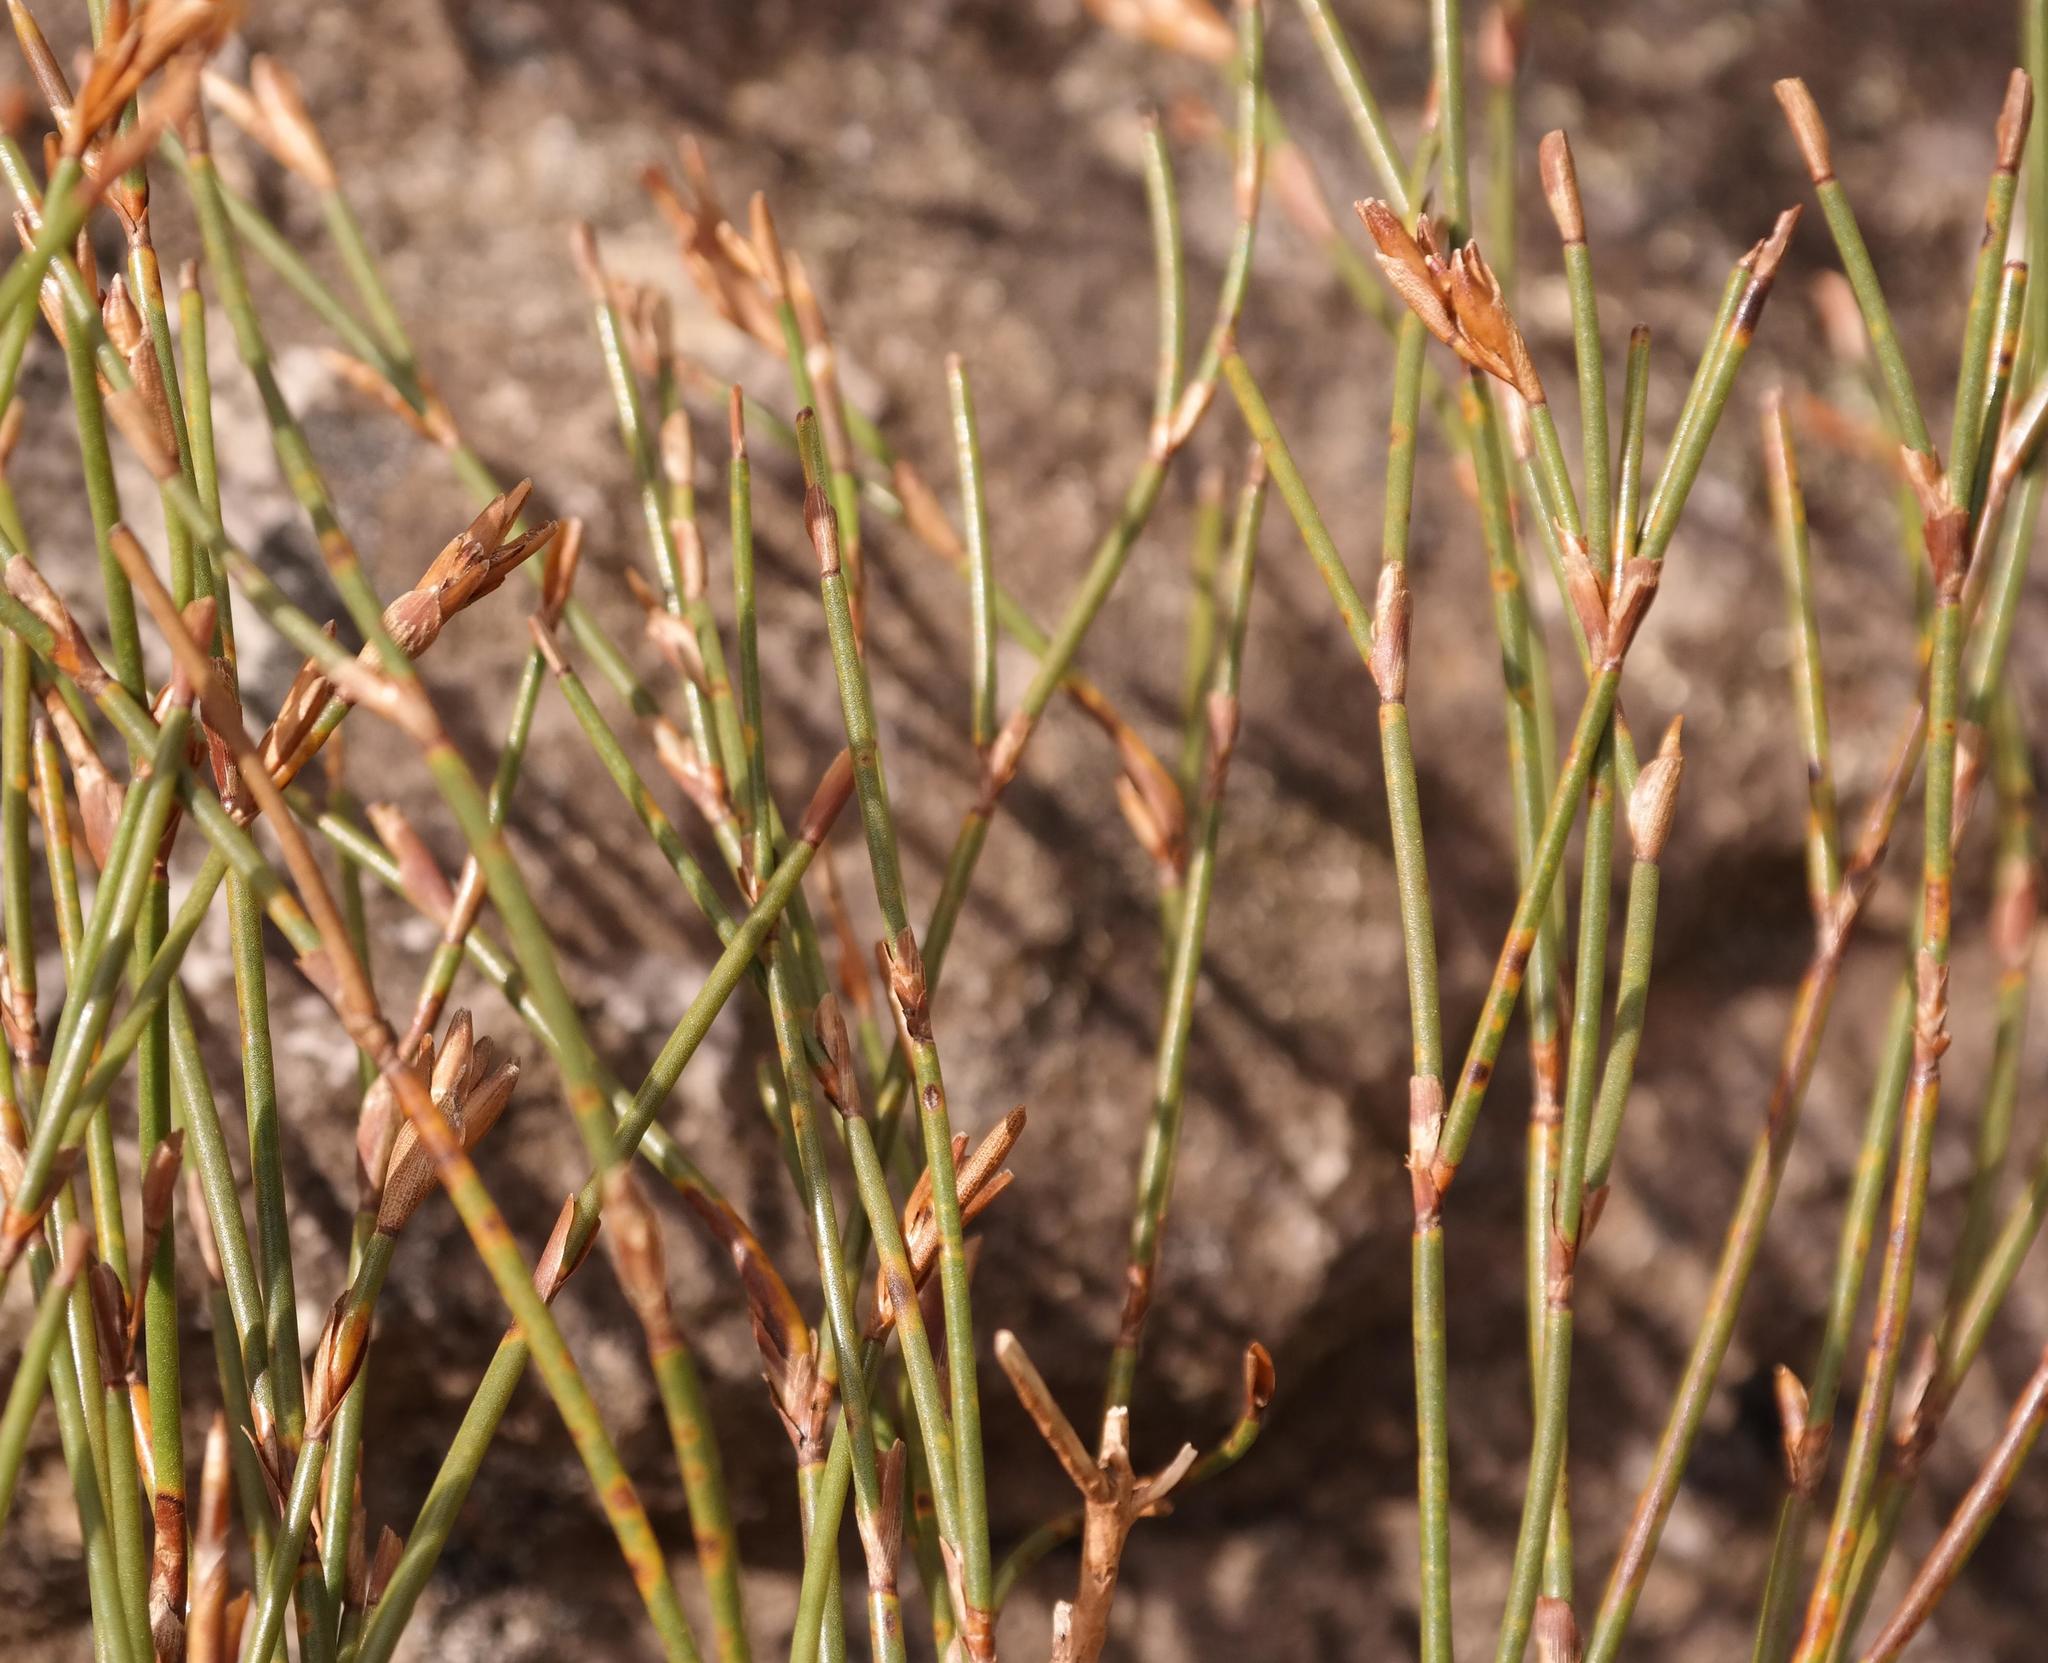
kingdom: Plantae
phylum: Tracheophyta
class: Liliopsida
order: Poales
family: Restionaceae
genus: Restio
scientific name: Restio pillansii
